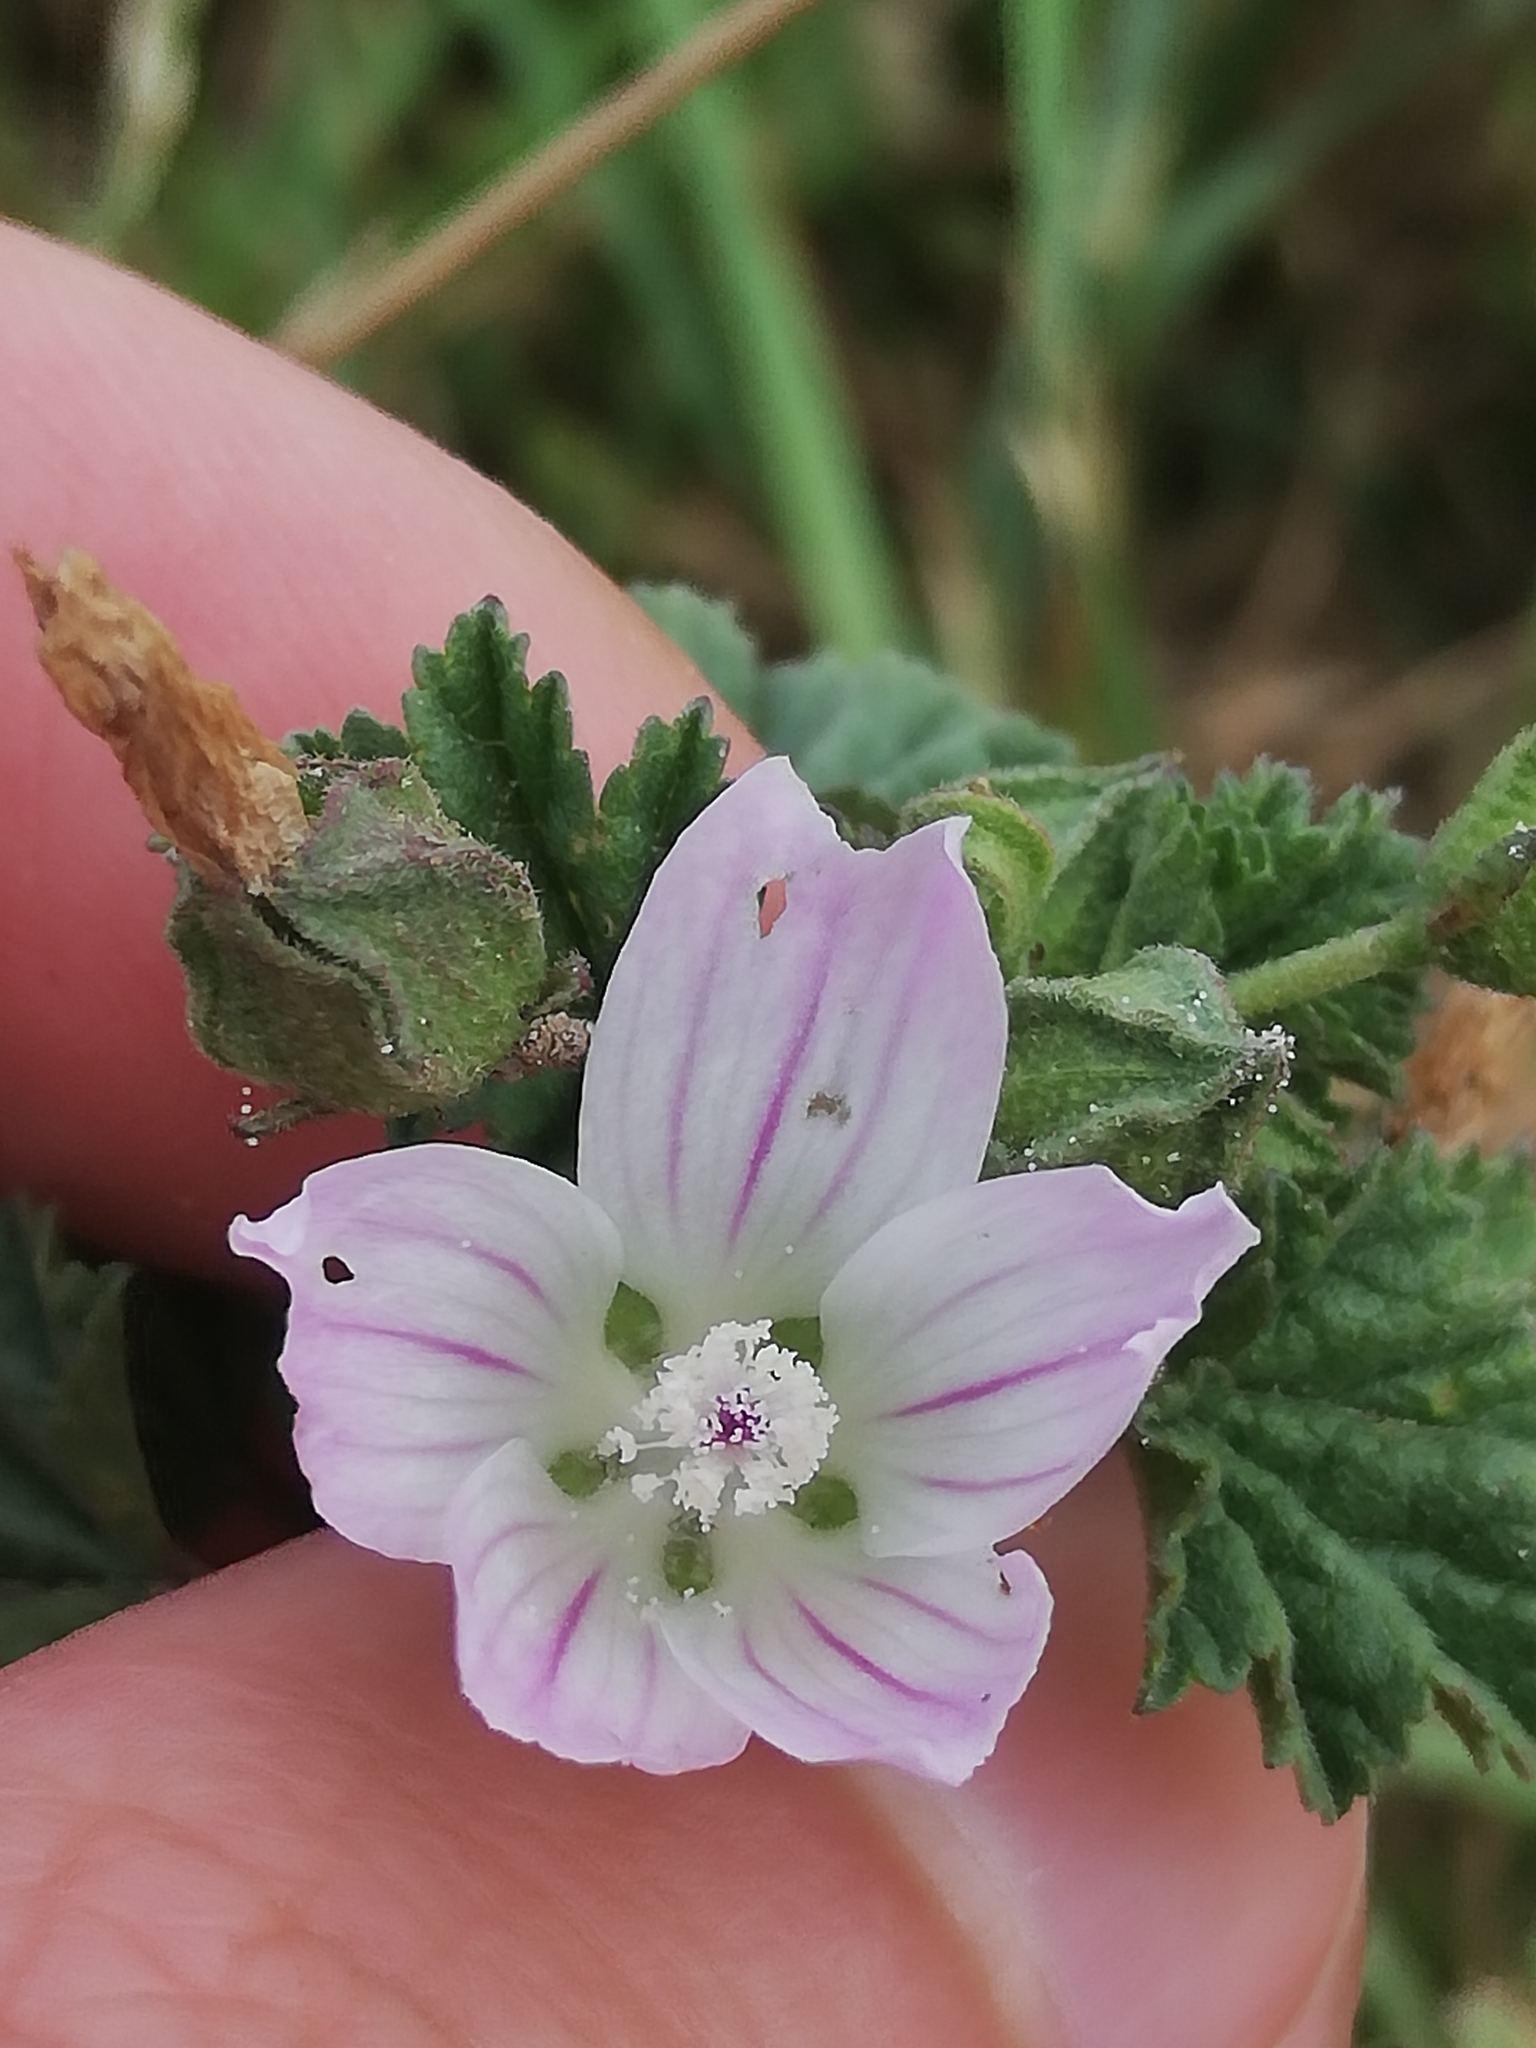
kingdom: Plantae
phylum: Tracheophyta
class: Magnoliopsida
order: Malvales
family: Malvaceae
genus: Malva
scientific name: Malva neglecta
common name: Common mallow
